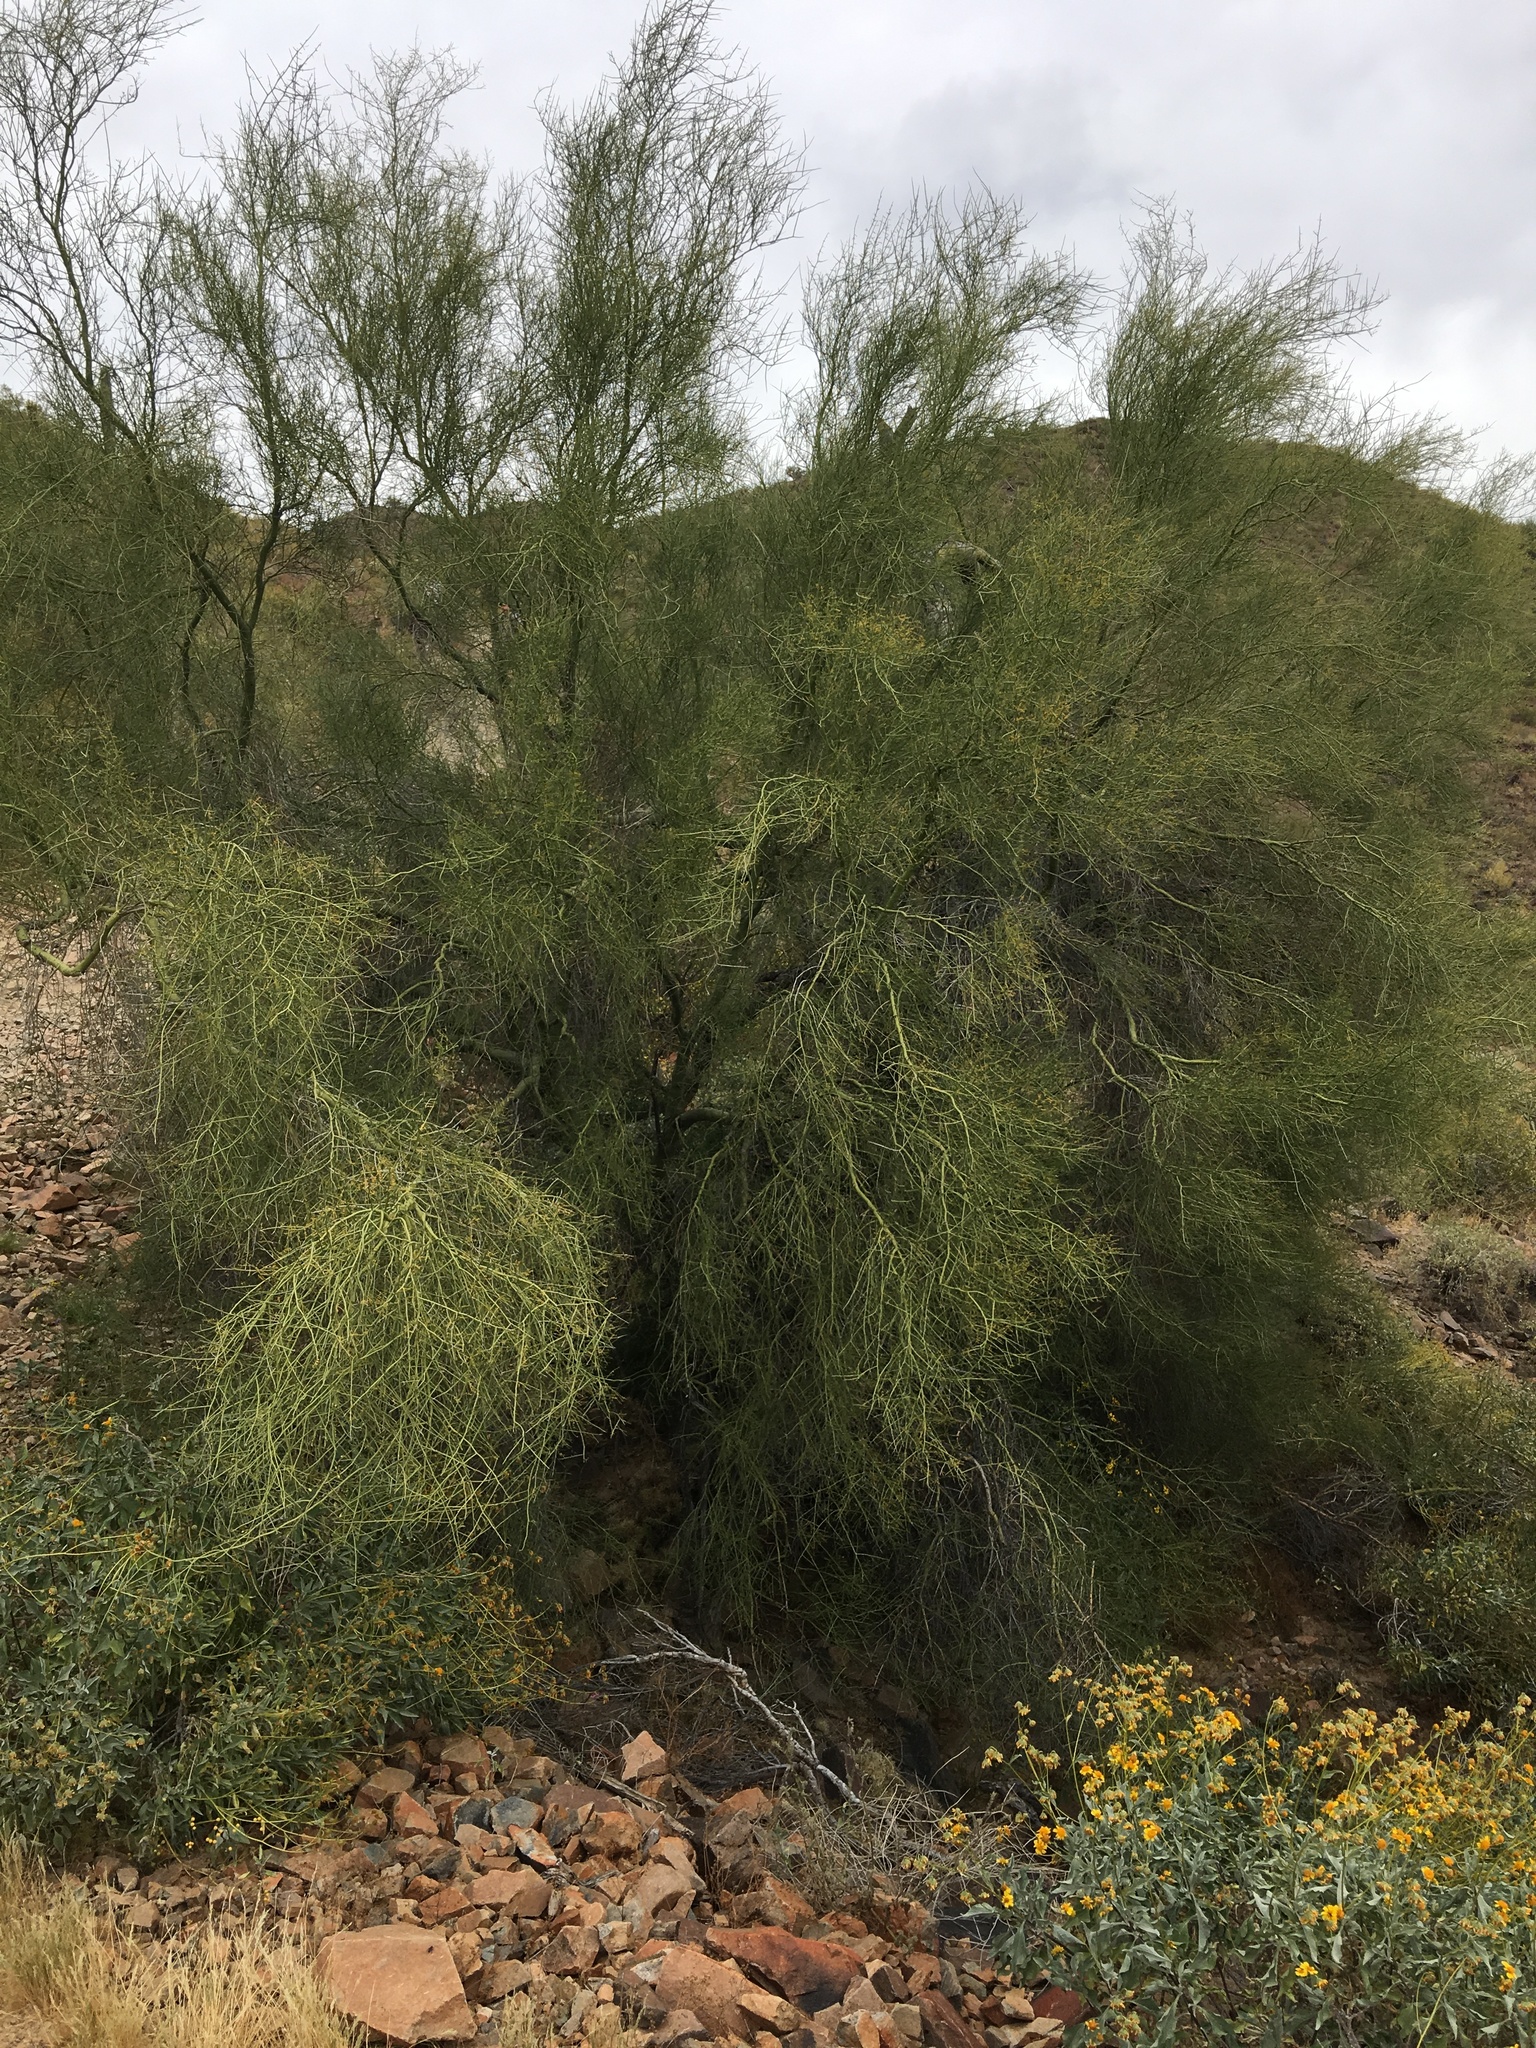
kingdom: Plantae
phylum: Tracheophyta
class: Magnoliopsida
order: Fabales
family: Fabaceae
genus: Parkinsonia
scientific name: Parkinsonia
